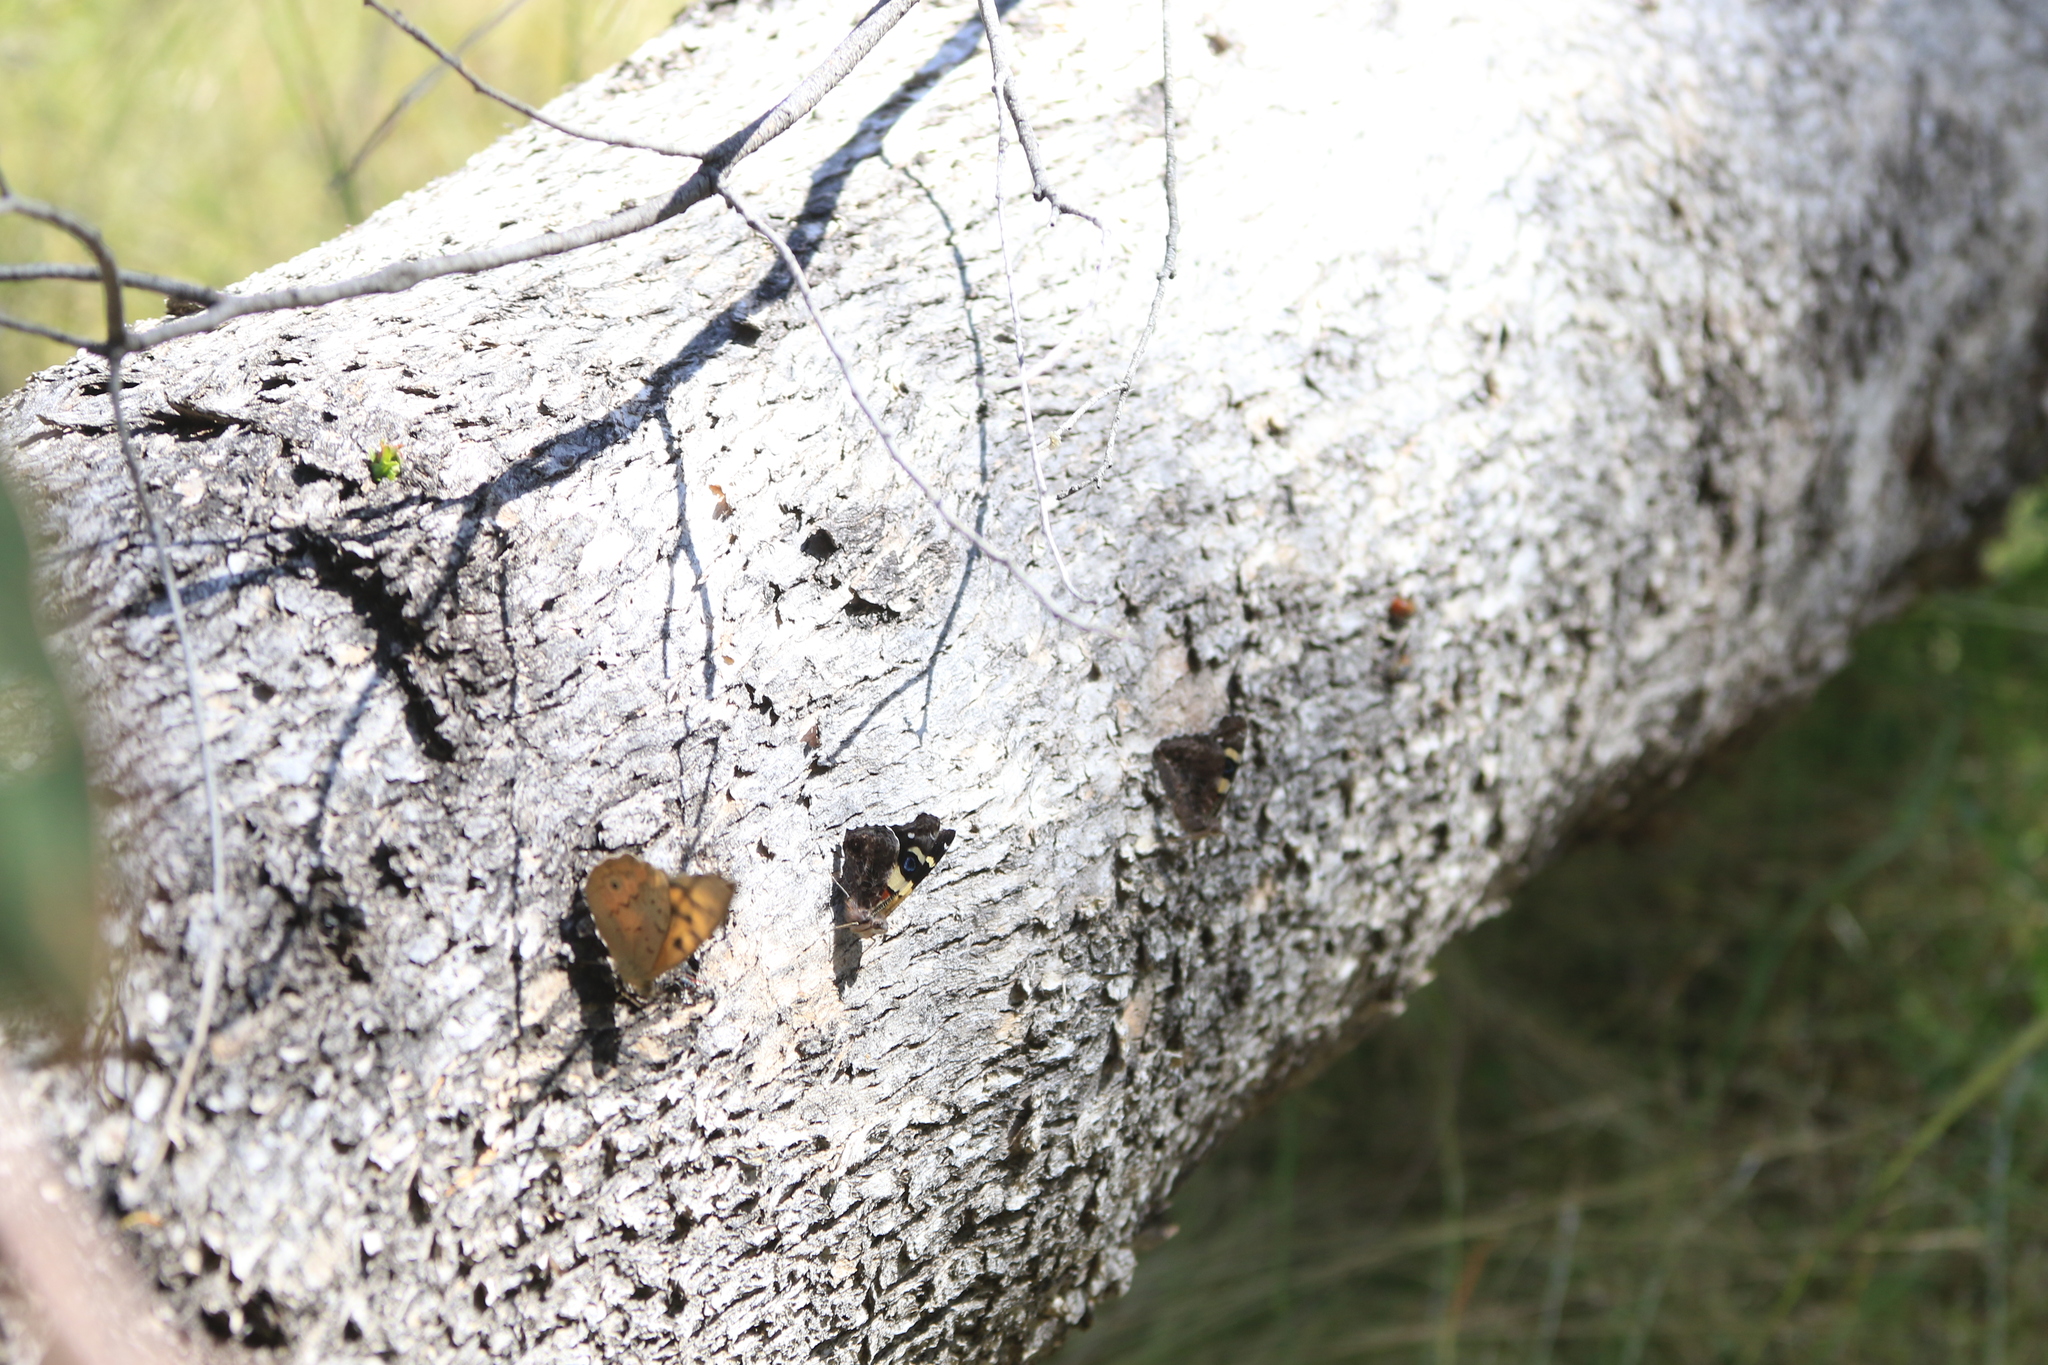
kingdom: Animalia
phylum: Arthropoda
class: Insecta
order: Lepidoptera
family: Nymphalidae
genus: Heteronympha
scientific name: Heteronympha merope
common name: Common brown
